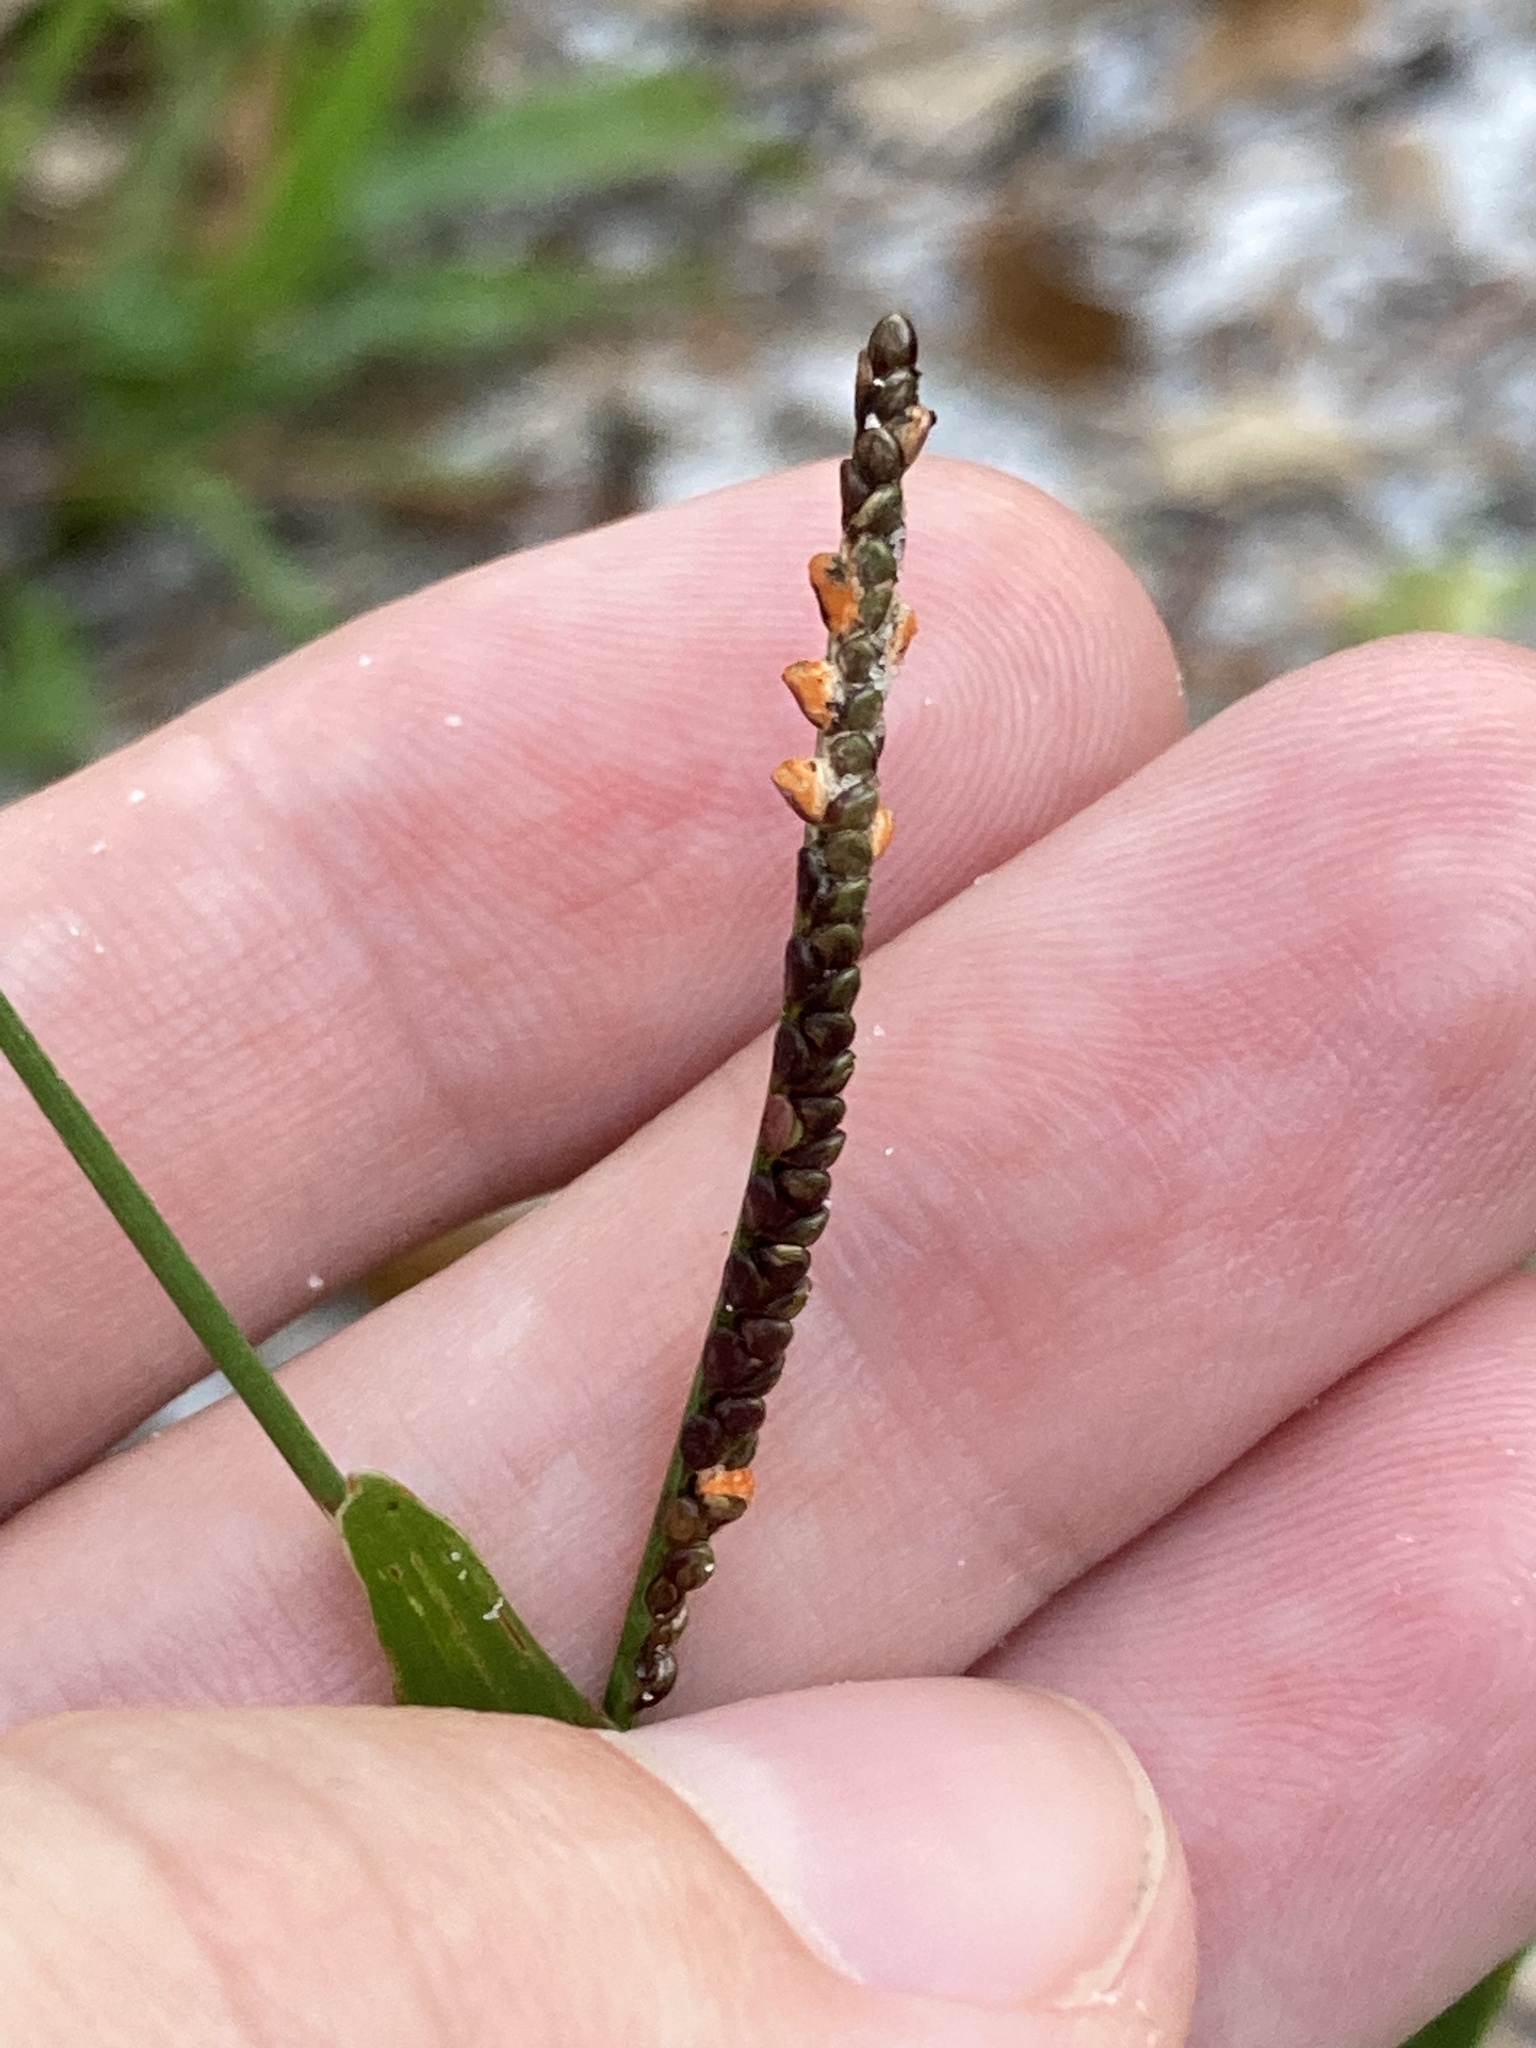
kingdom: Plantae
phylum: Tracheophyta
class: Liliopsida
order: Poales
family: Poaceae
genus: Paspalum
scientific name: Paspalum setaceum
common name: Slender paspalum
